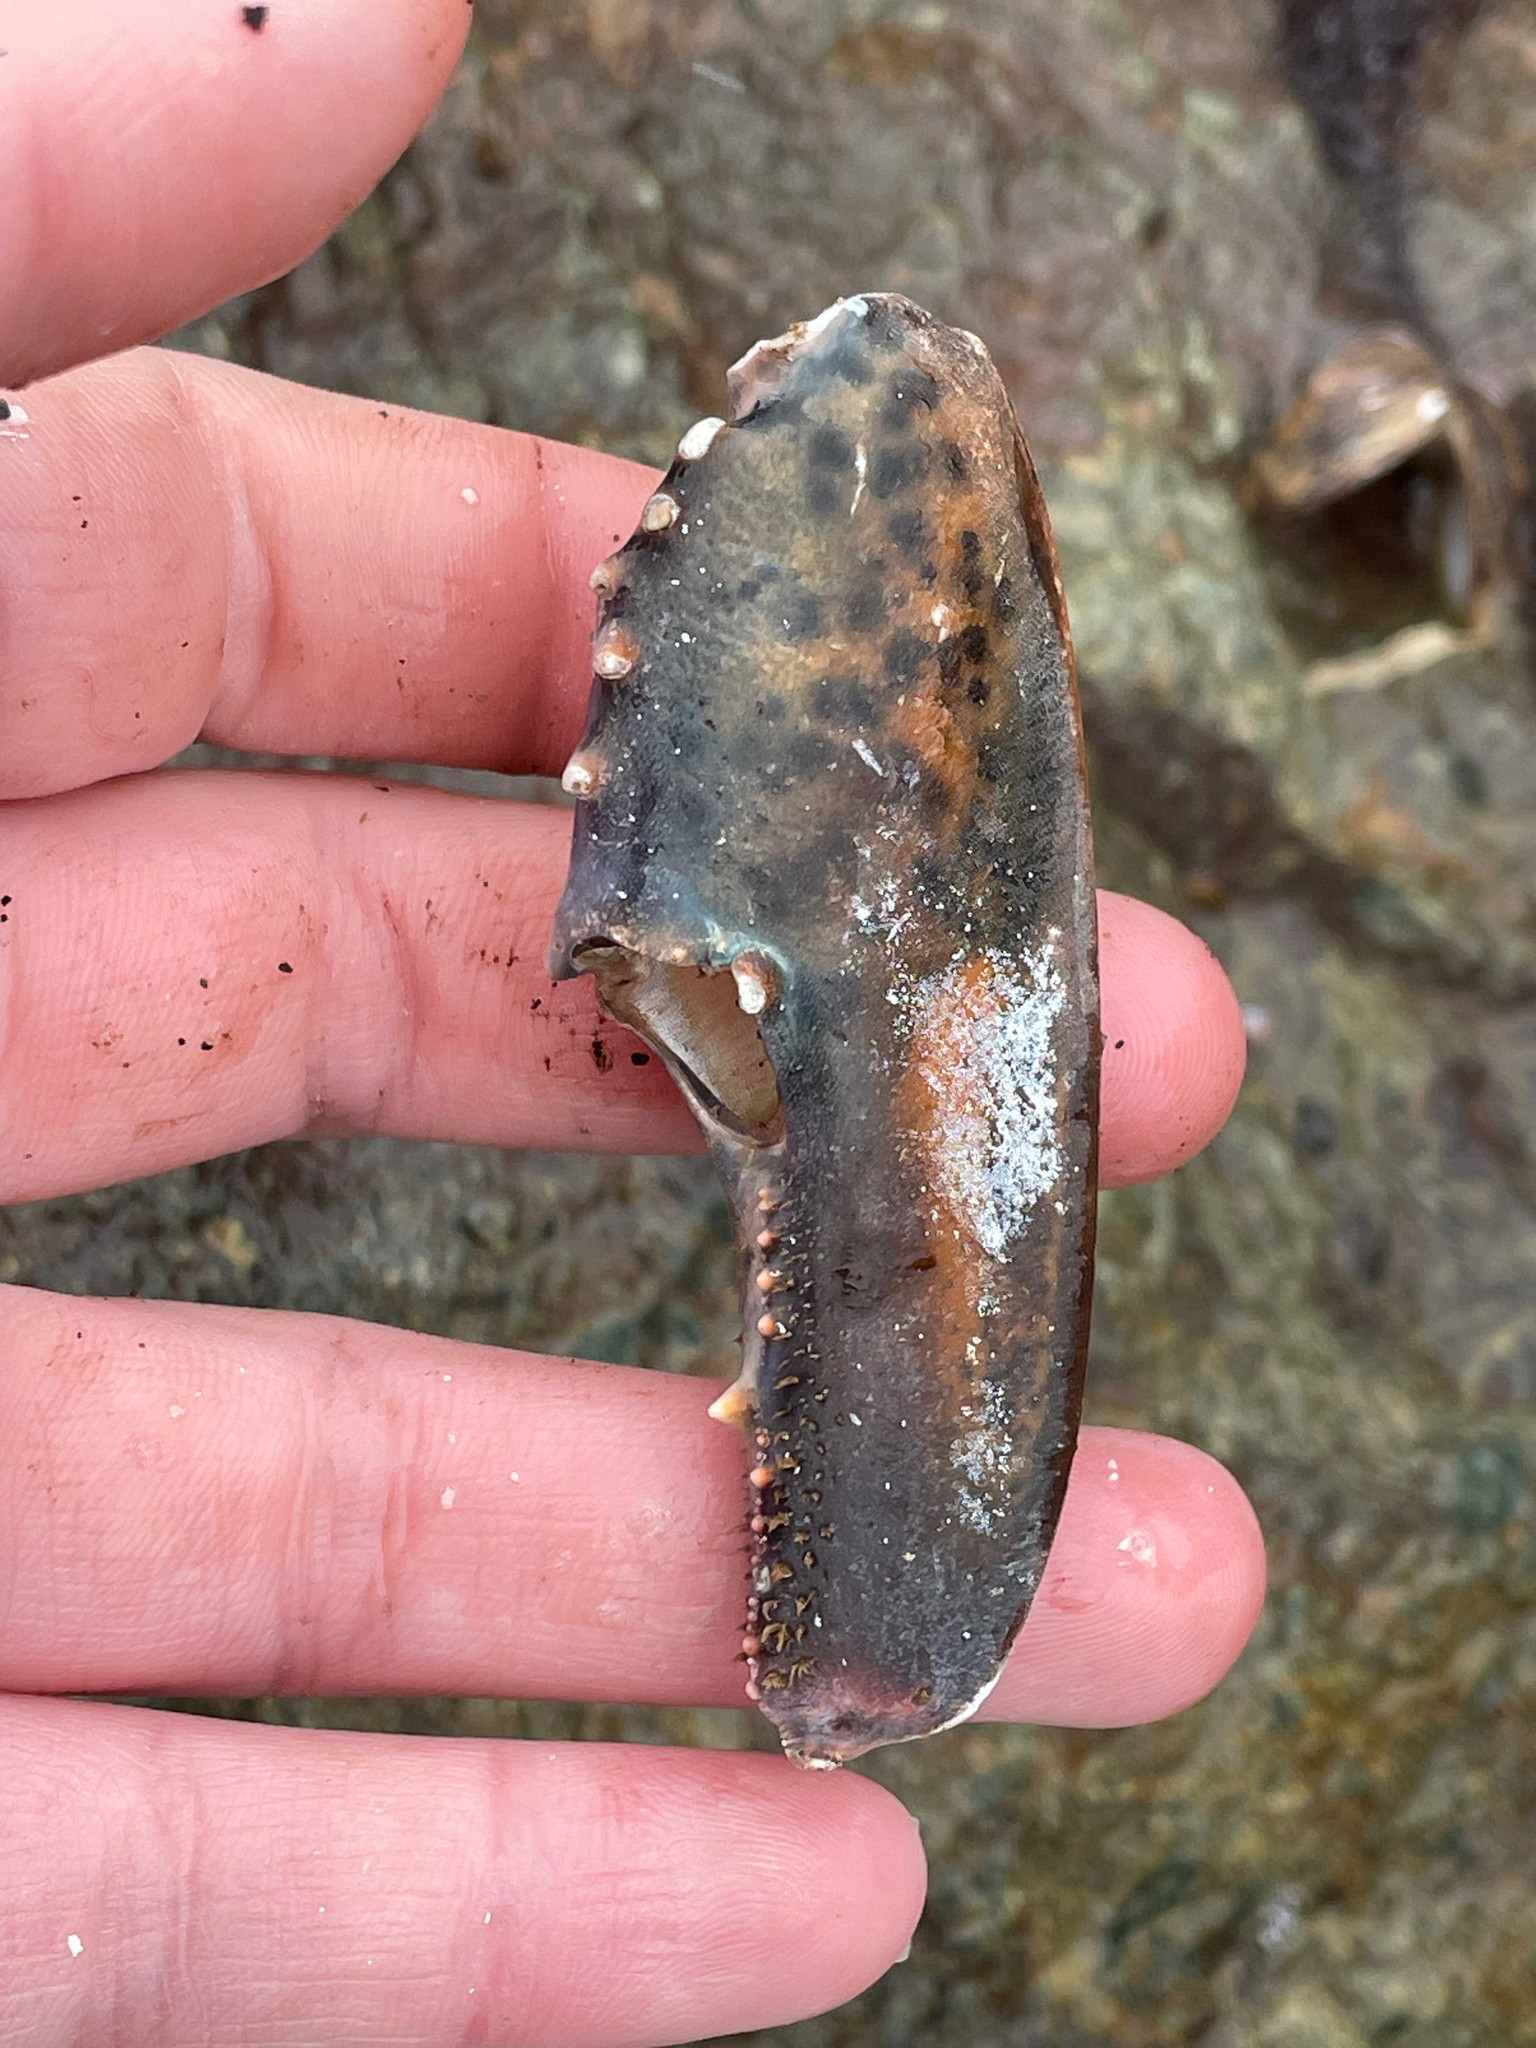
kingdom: Animalia
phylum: Arthropoda
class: Malacostraca
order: Decapoda
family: Nephropidae
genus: Homarus
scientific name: Homarus americanus
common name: American lobster
